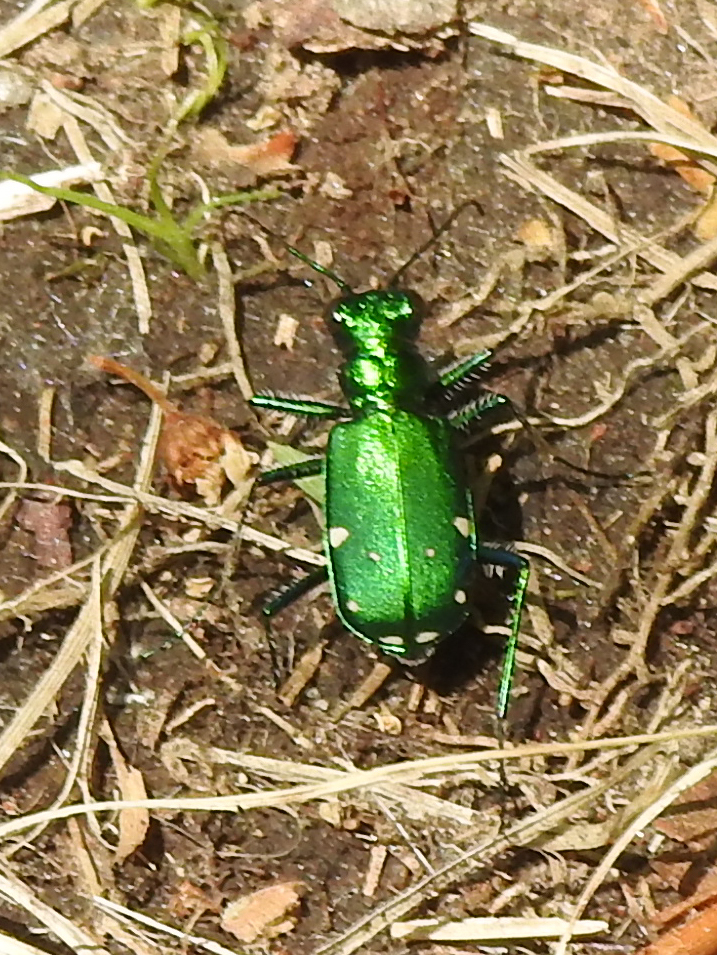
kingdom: Animalia
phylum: Arthropoda
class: Insecta
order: Coleoptera
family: Carabidae
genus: Cicindela
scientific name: Cicindela sexguttata
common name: Six-spotted tiger beetle
